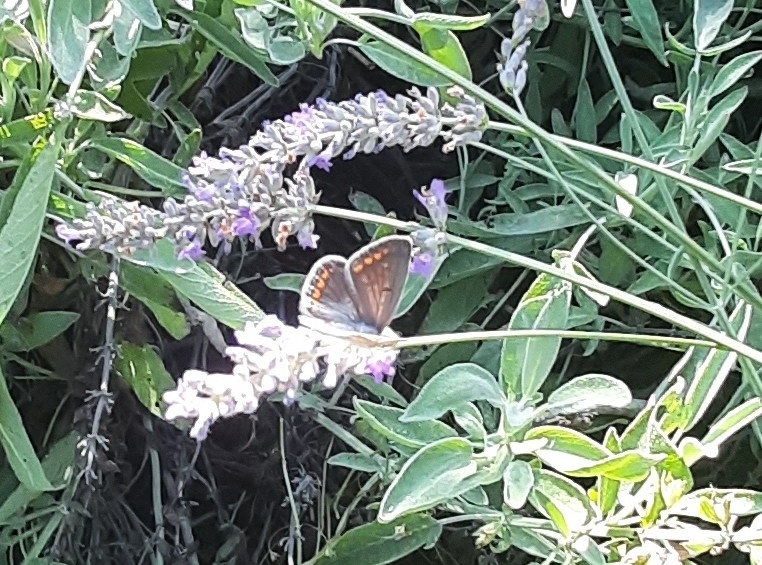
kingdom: Animalia
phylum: Arthropoda
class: Insecta
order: Lepidoptera
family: Lycaenidae
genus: Polyommatus
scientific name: Polyommatus icarus
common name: Common blue
